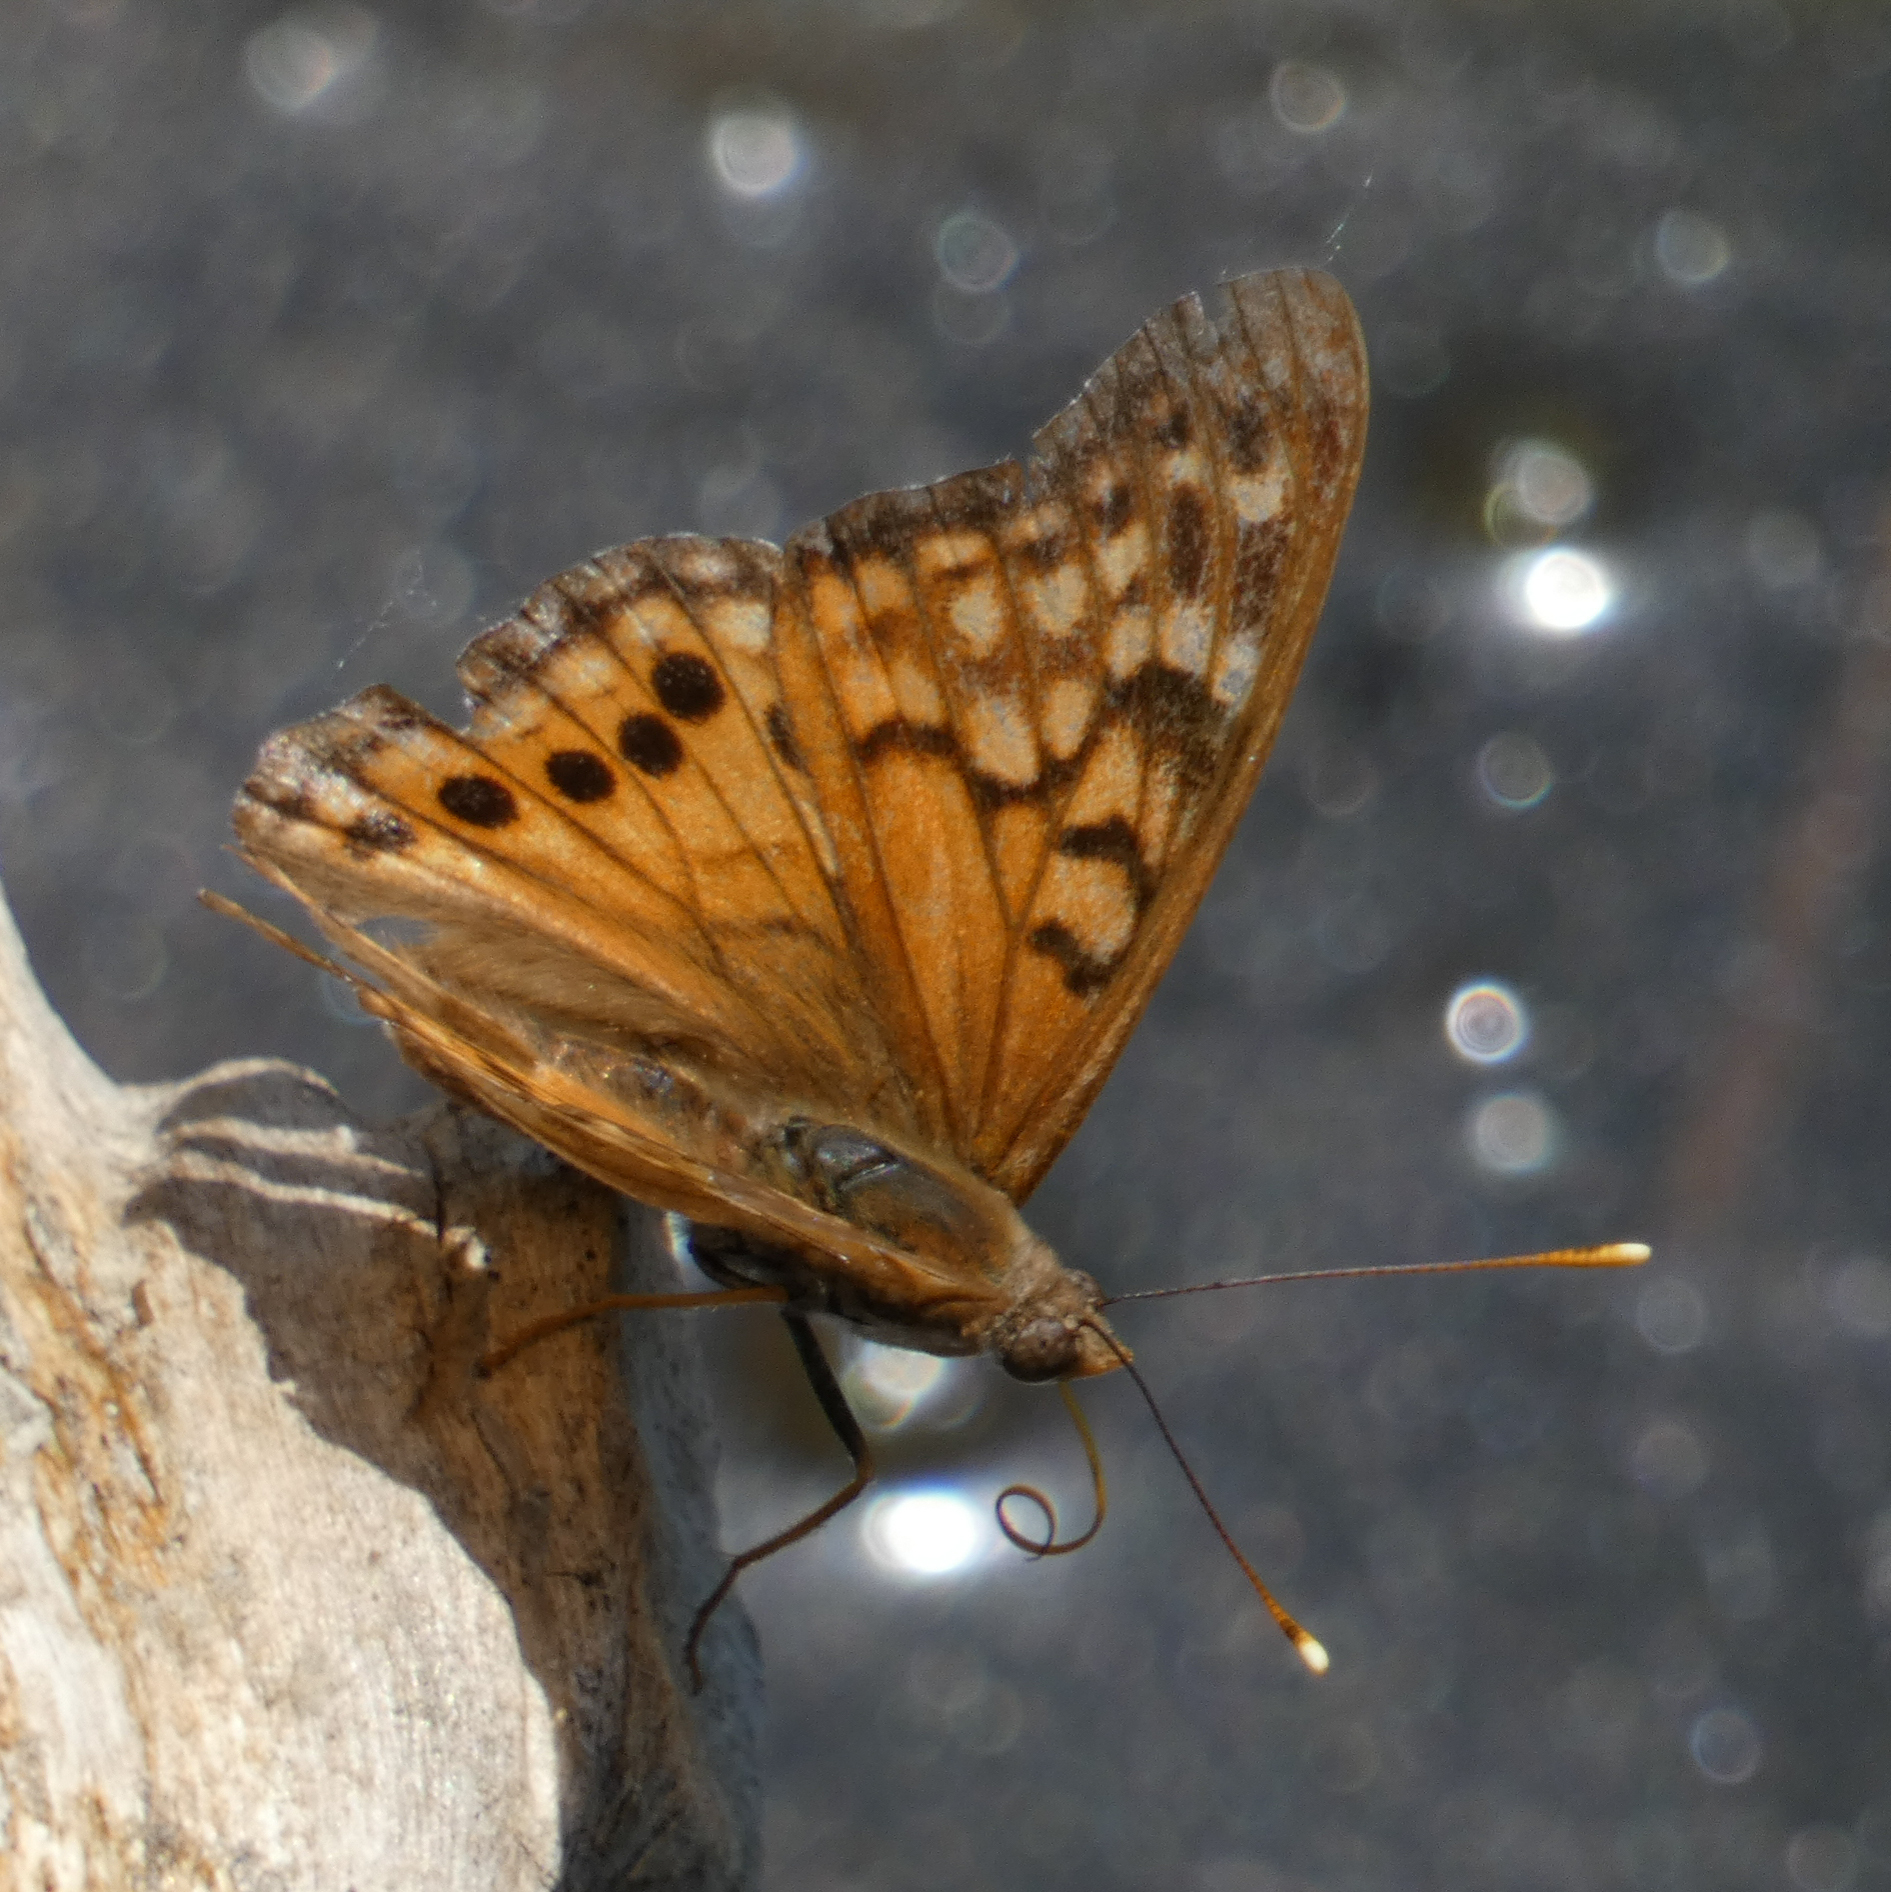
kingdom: Animalia
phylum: Arthropoda
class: Insecta
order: Lepidoptera
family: Nymphalidae
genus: Asterocampa
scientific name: Asterocampa clyton
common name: Tawny emperor
